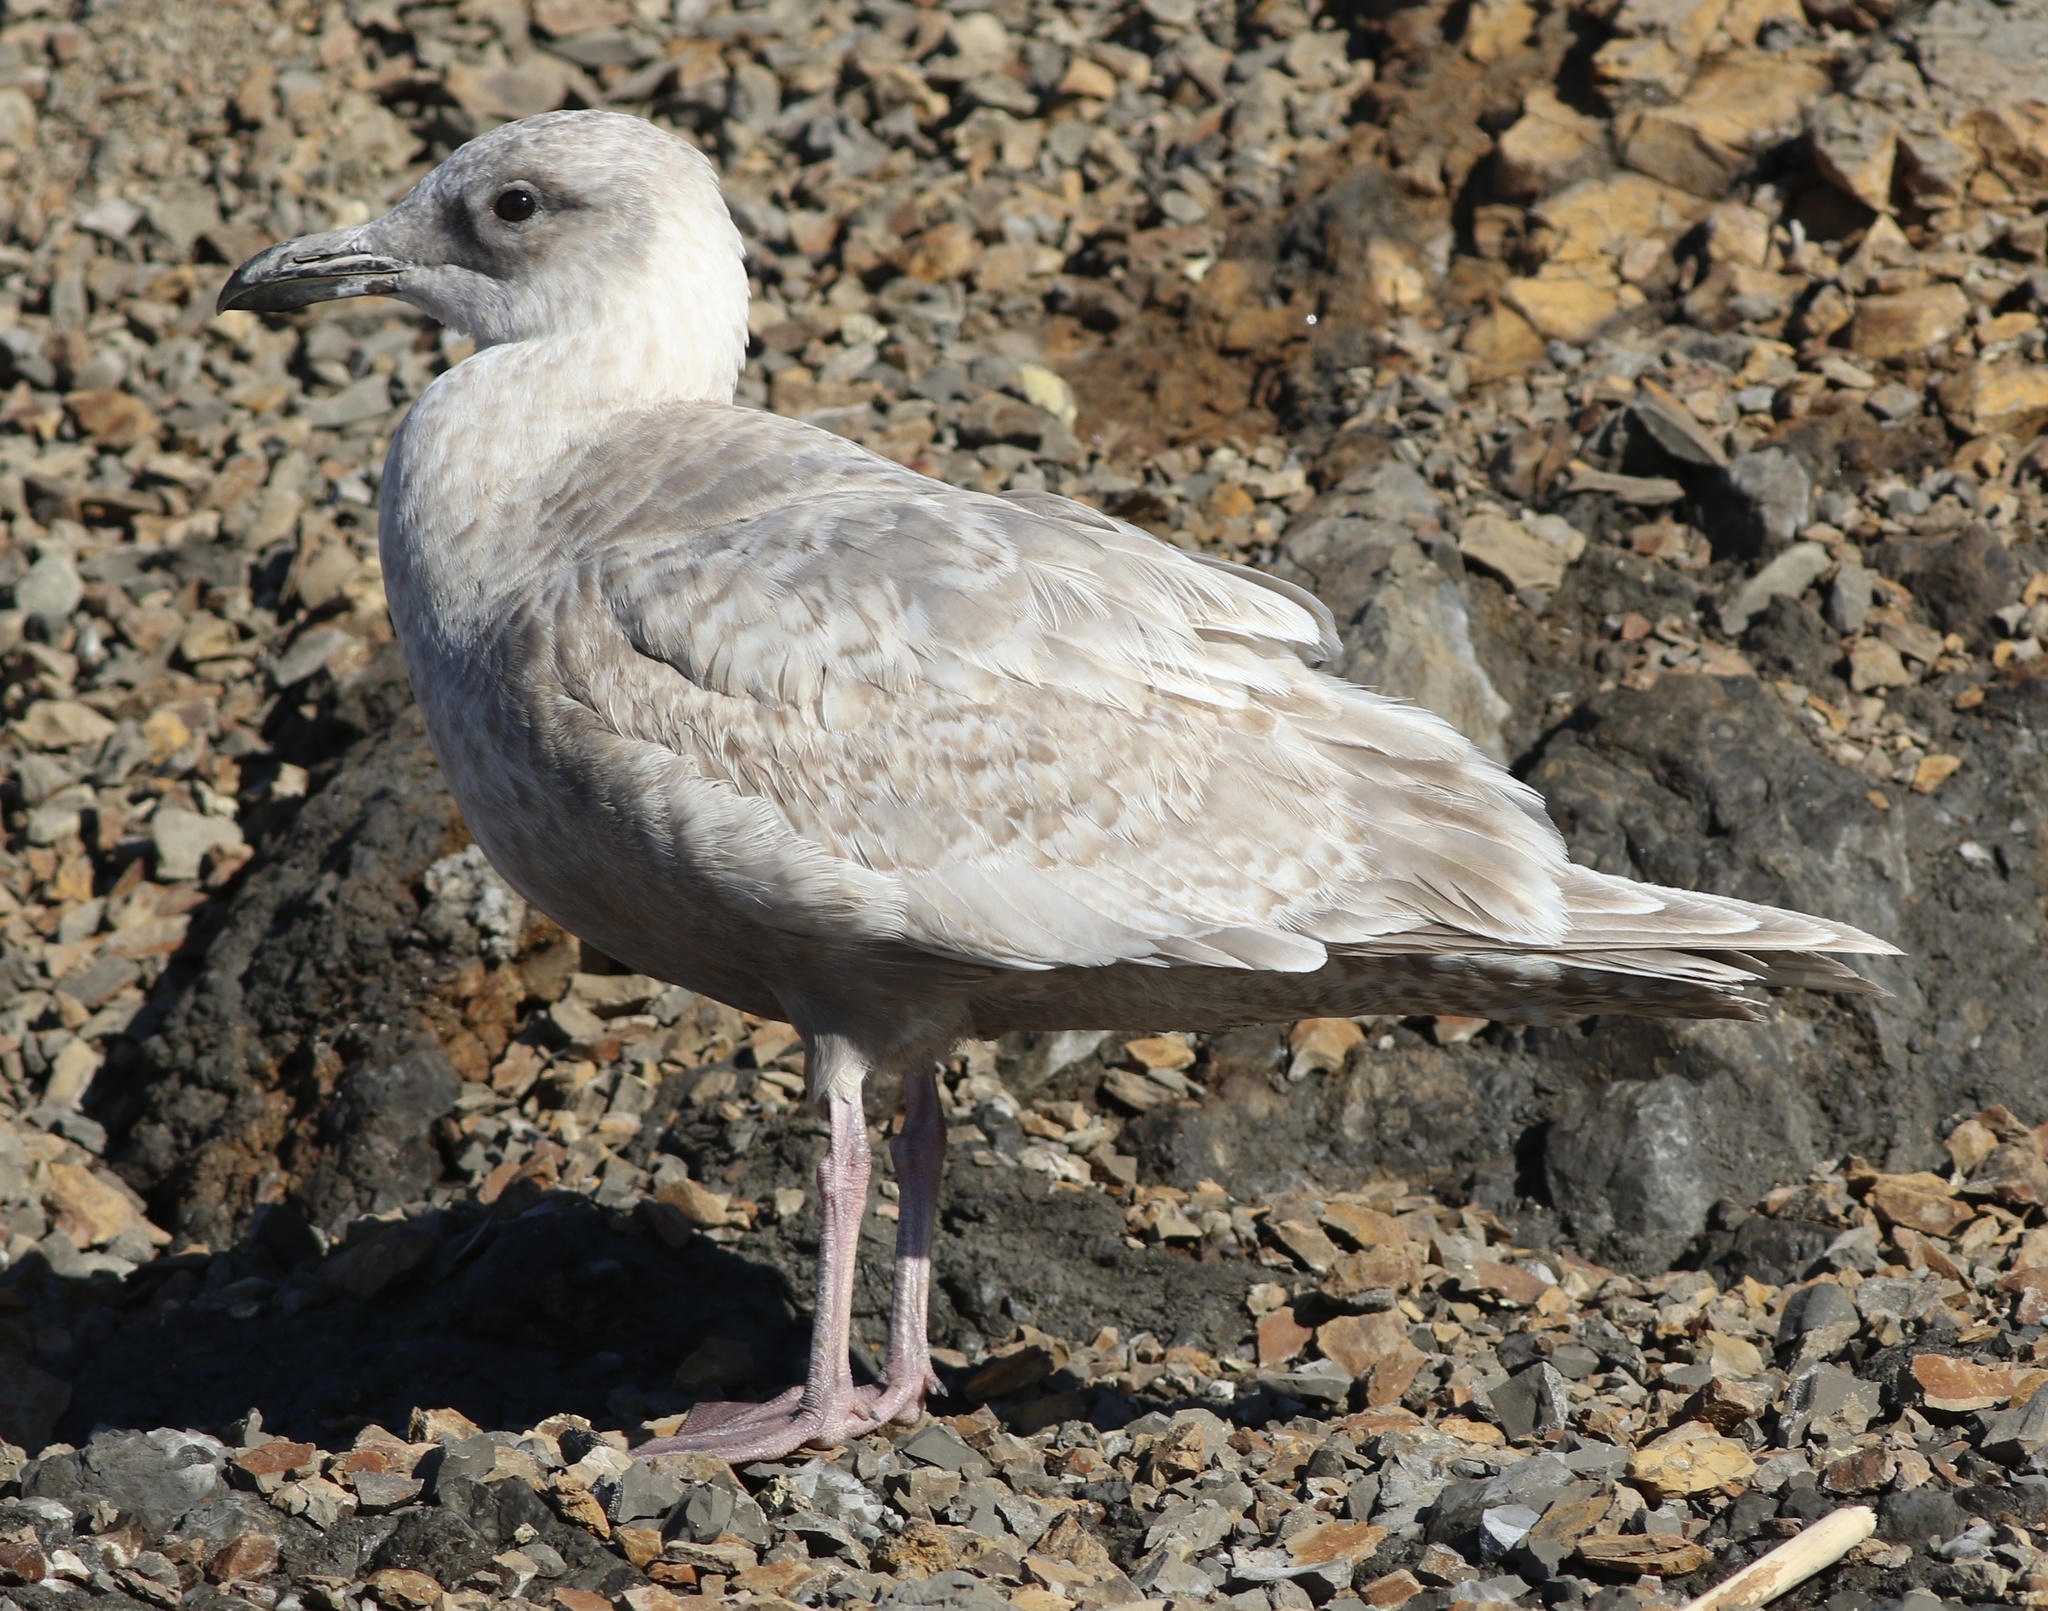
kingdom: Animalia
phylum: Chordata
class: Aves
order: Charadriiformes
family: Laridae
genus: Larus
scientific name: Larus glaucescens
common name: Glaucous-winged gull
